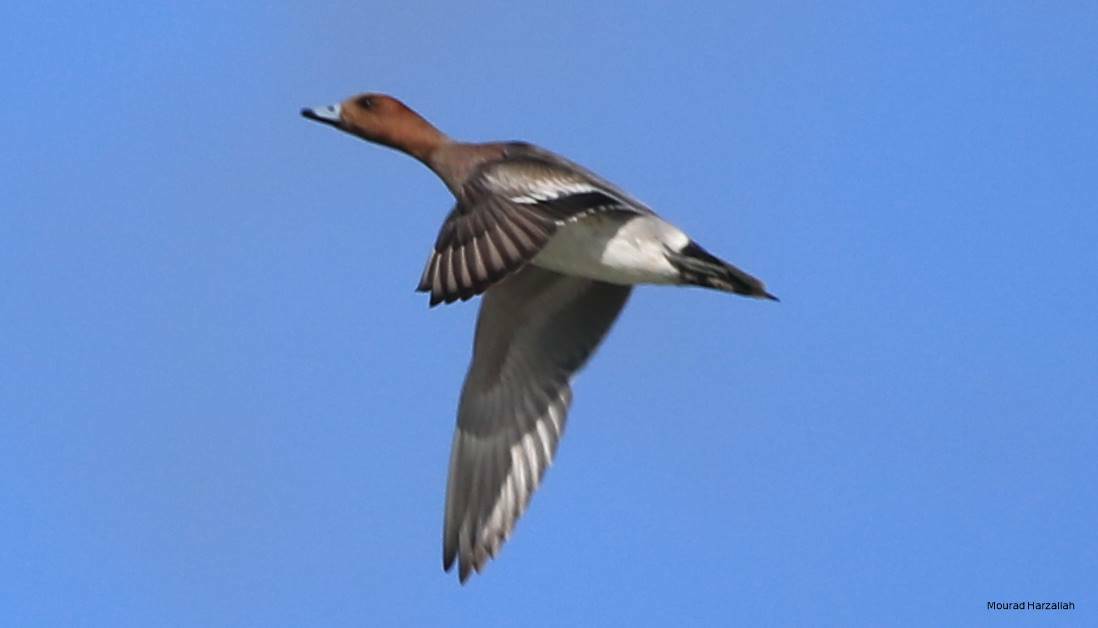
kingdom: Animalia
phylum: Chordata
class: Aves
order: Anseriformes
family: Anatidae
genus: Mareca
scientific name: Mareca penelope
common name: Eurasian wigeon
